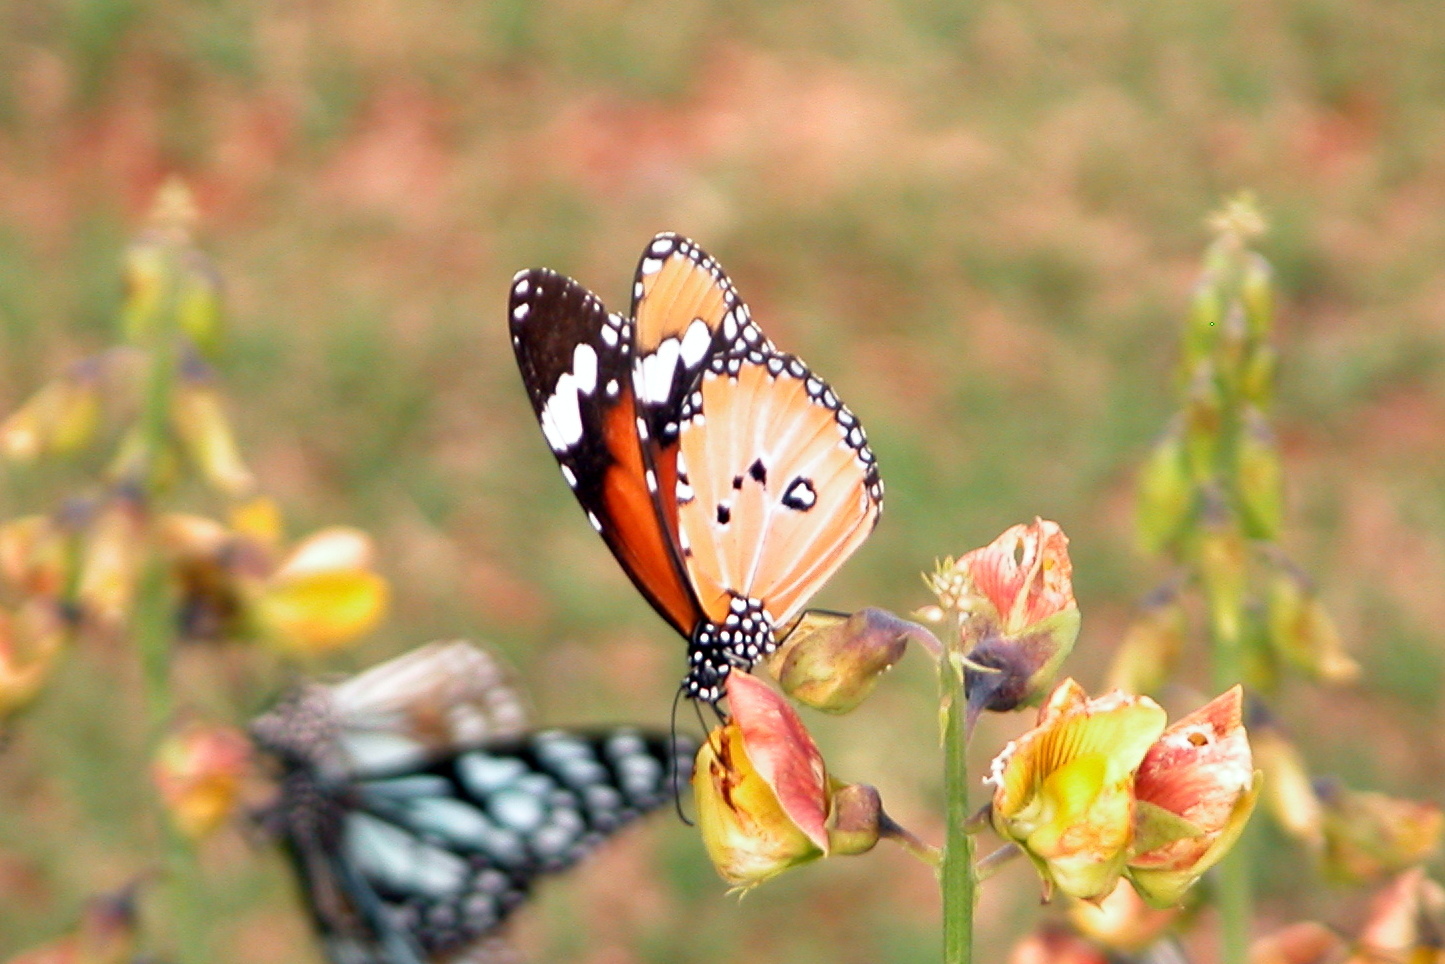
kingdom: Animalia
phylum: Arthropoda
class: Insecta
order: Lepidoptera
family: Nymphalidae
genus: Danaus
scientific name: Danaus chrysippus
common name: Plain tiger
